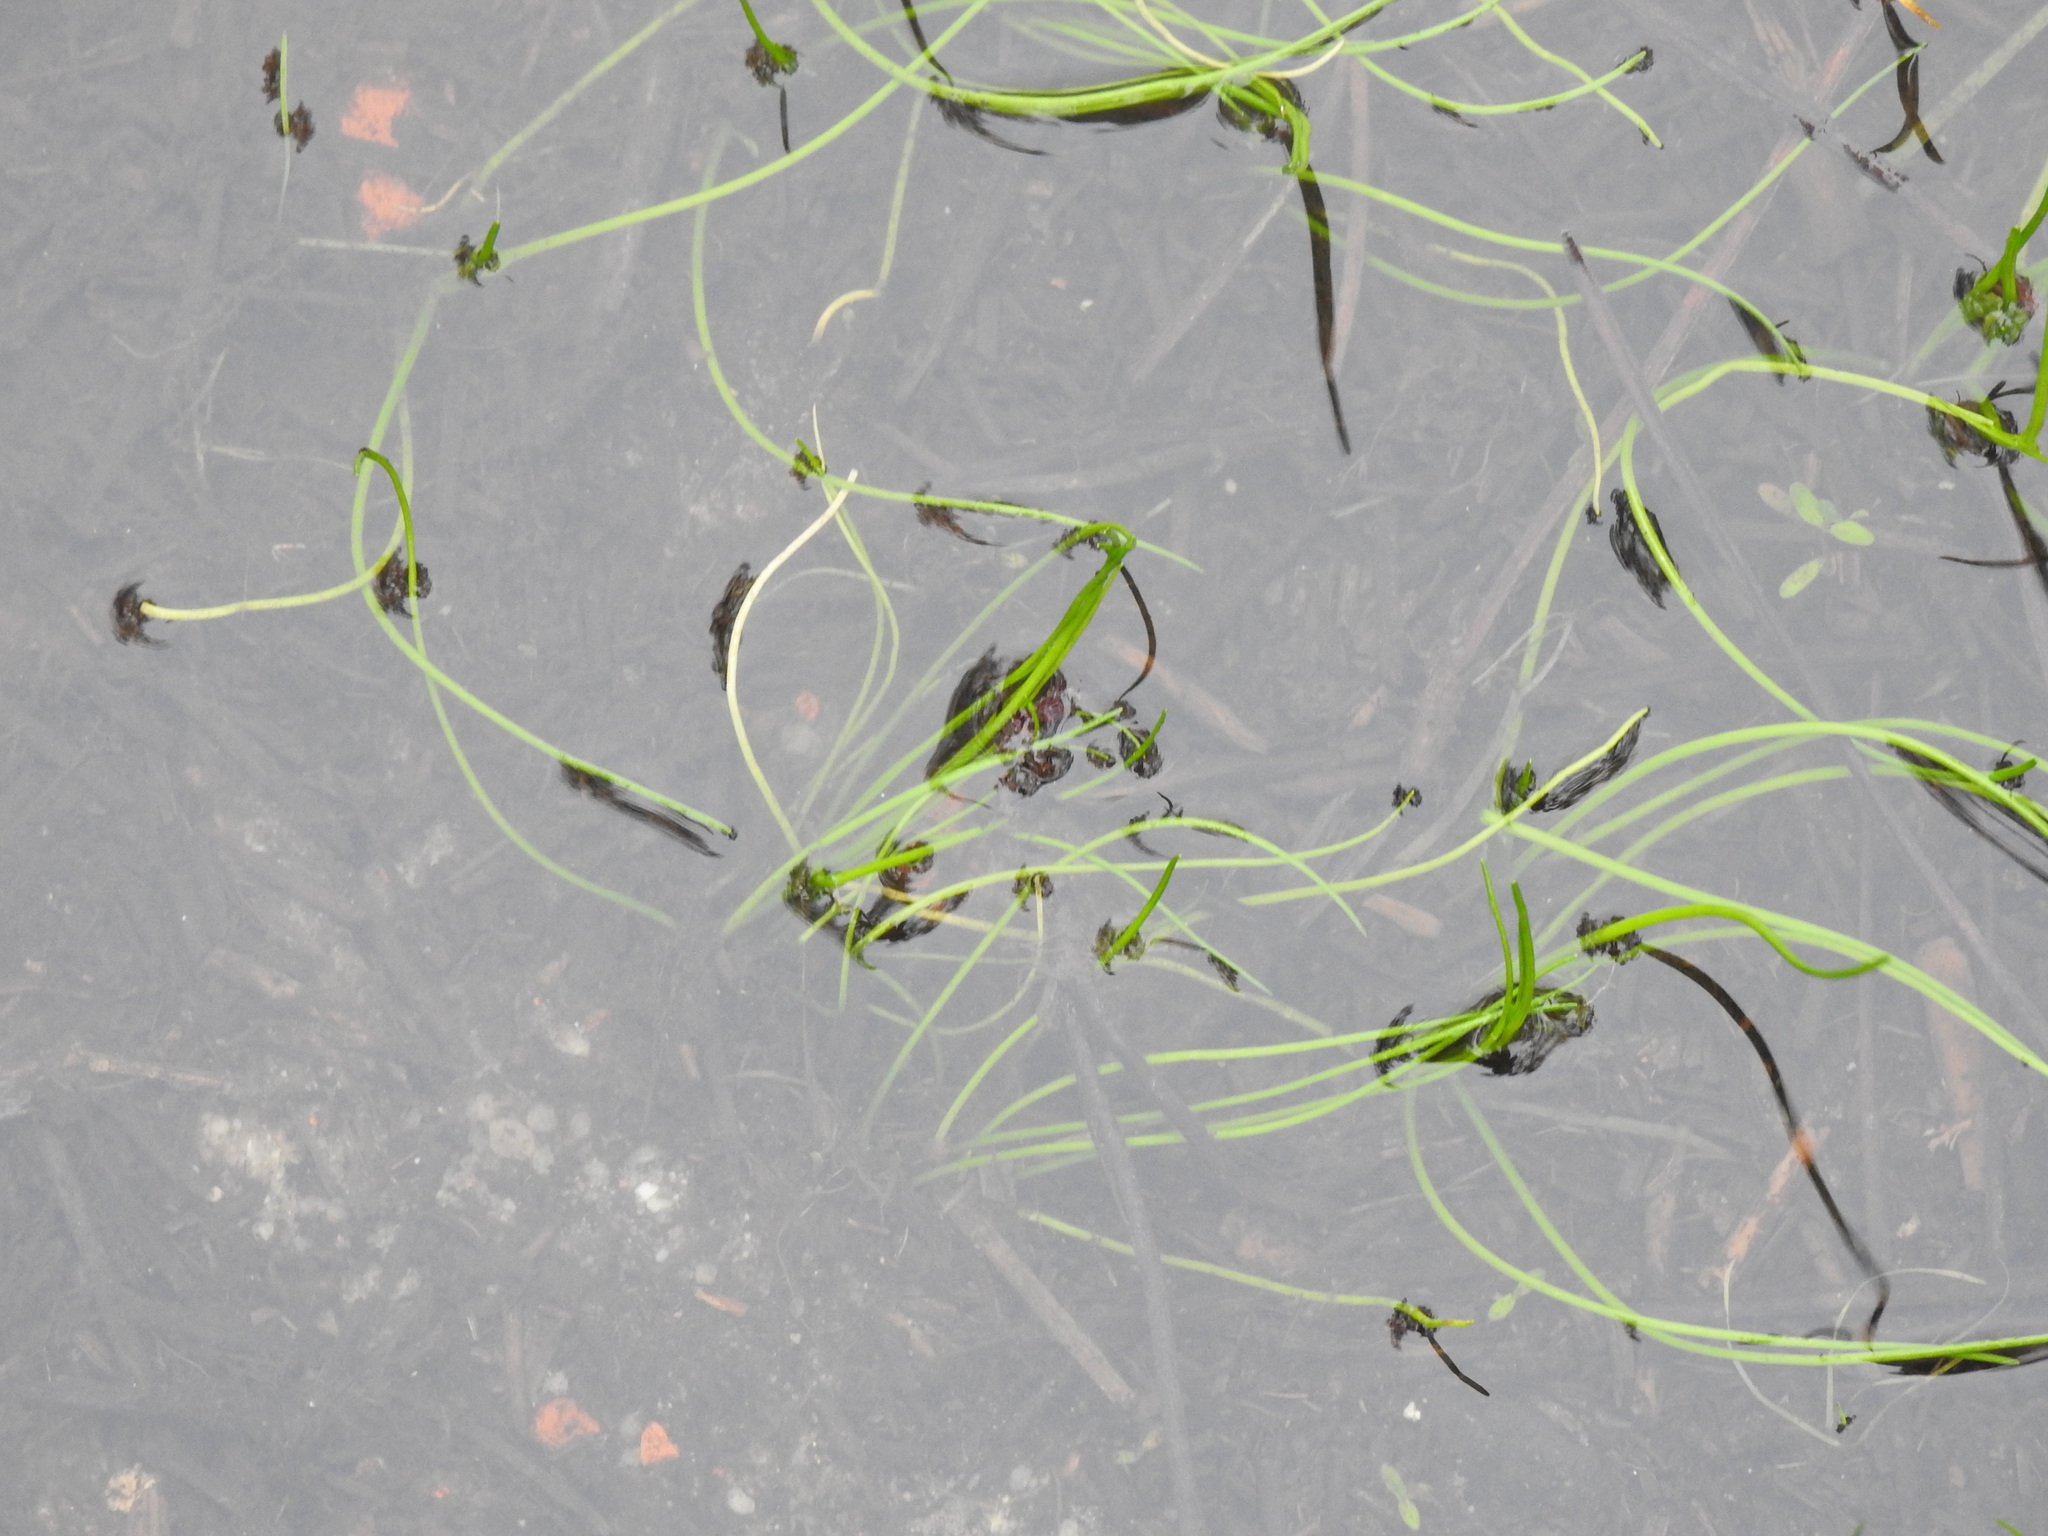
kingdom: Plantae
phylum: Tracheophyta
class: Liliopsida
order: Alismatales
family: Juncaginaceae
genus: Triglochin
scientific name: Triglochin scilloides
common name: Awl-leaved lilaea
